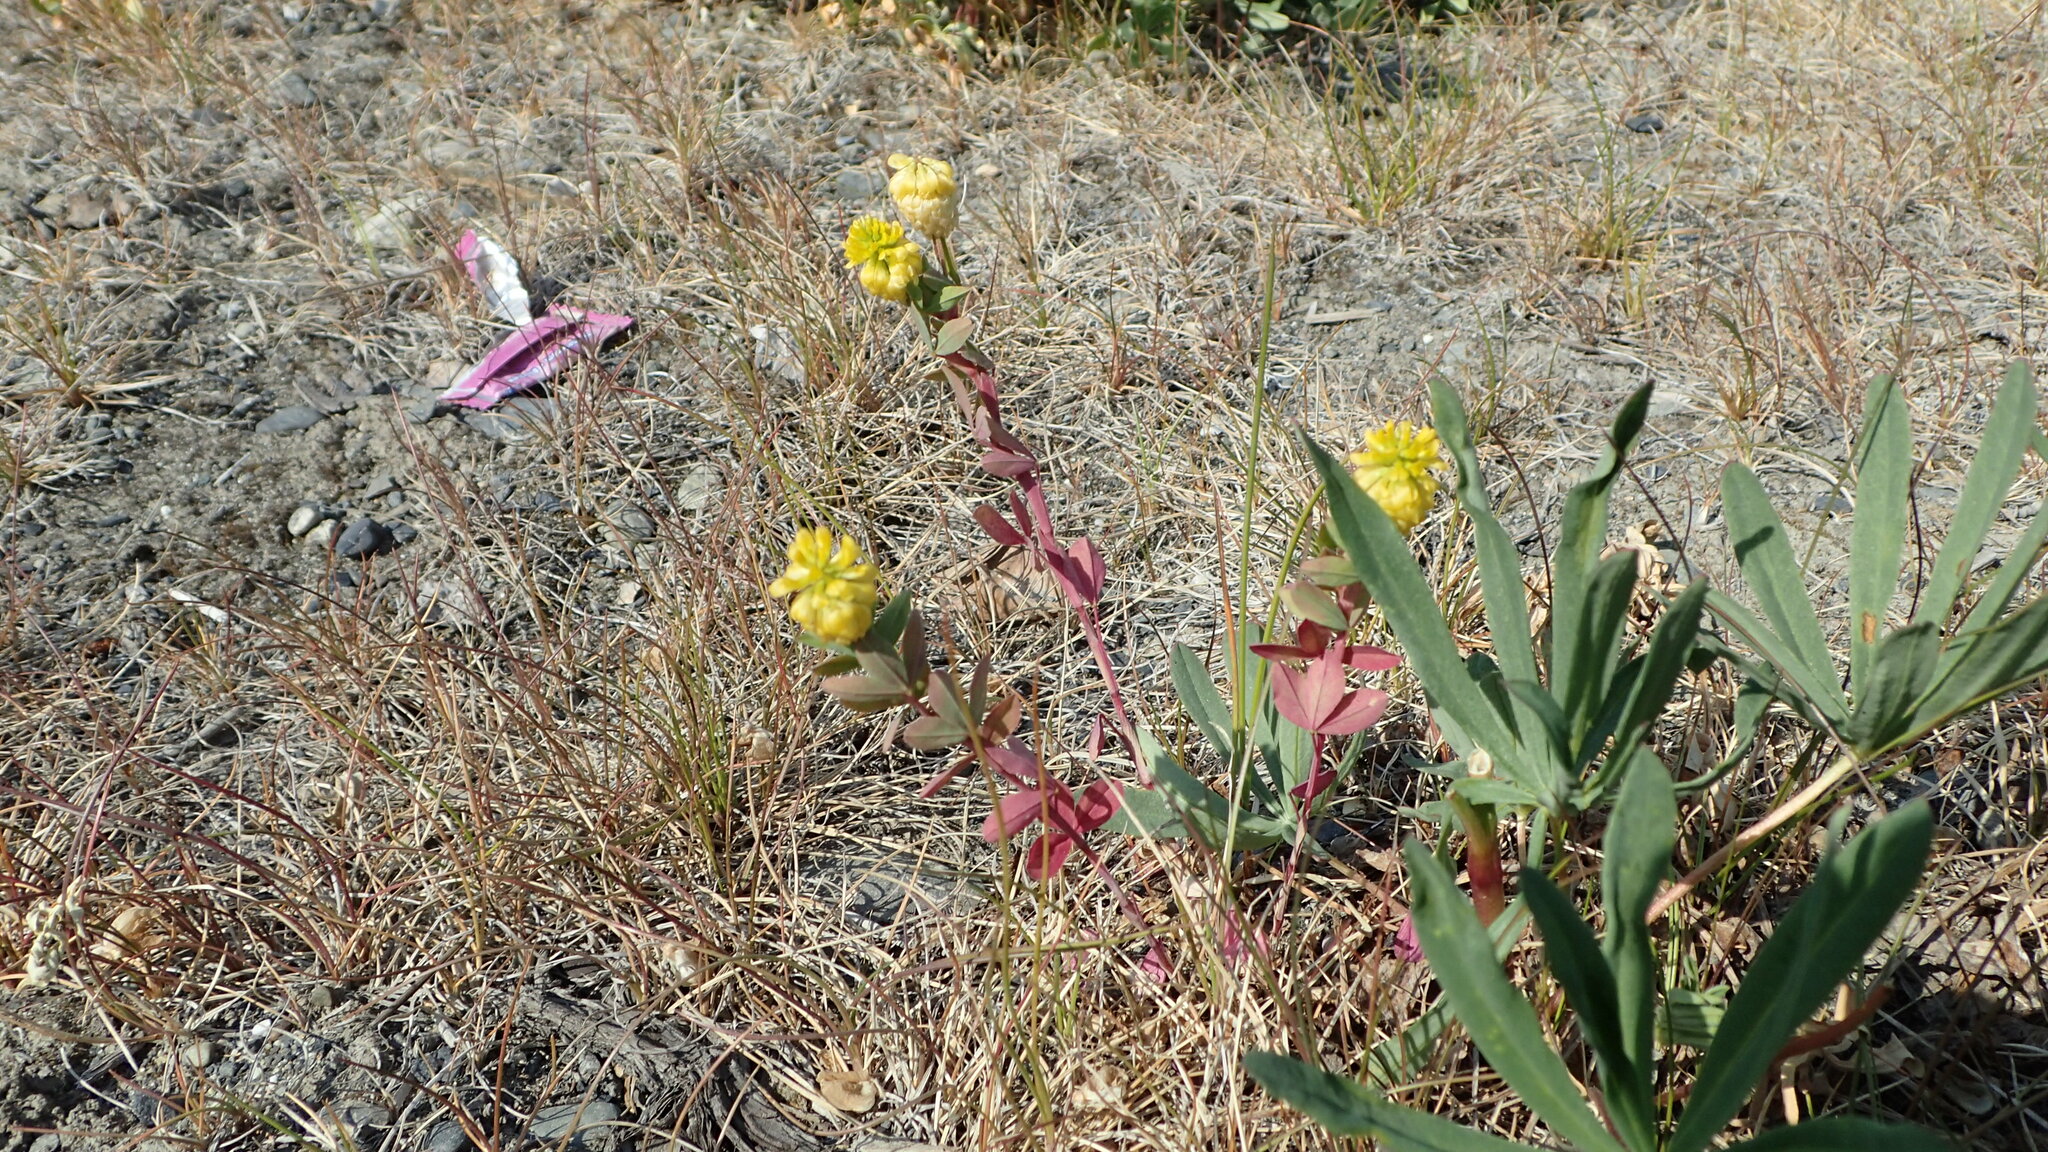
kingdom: Plantae
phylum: Tracheophyta
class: Magnoliopsida
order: Fabales
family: Fabaceae
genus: Trifolium
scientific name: Trifolium aureum
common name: Golden clover
